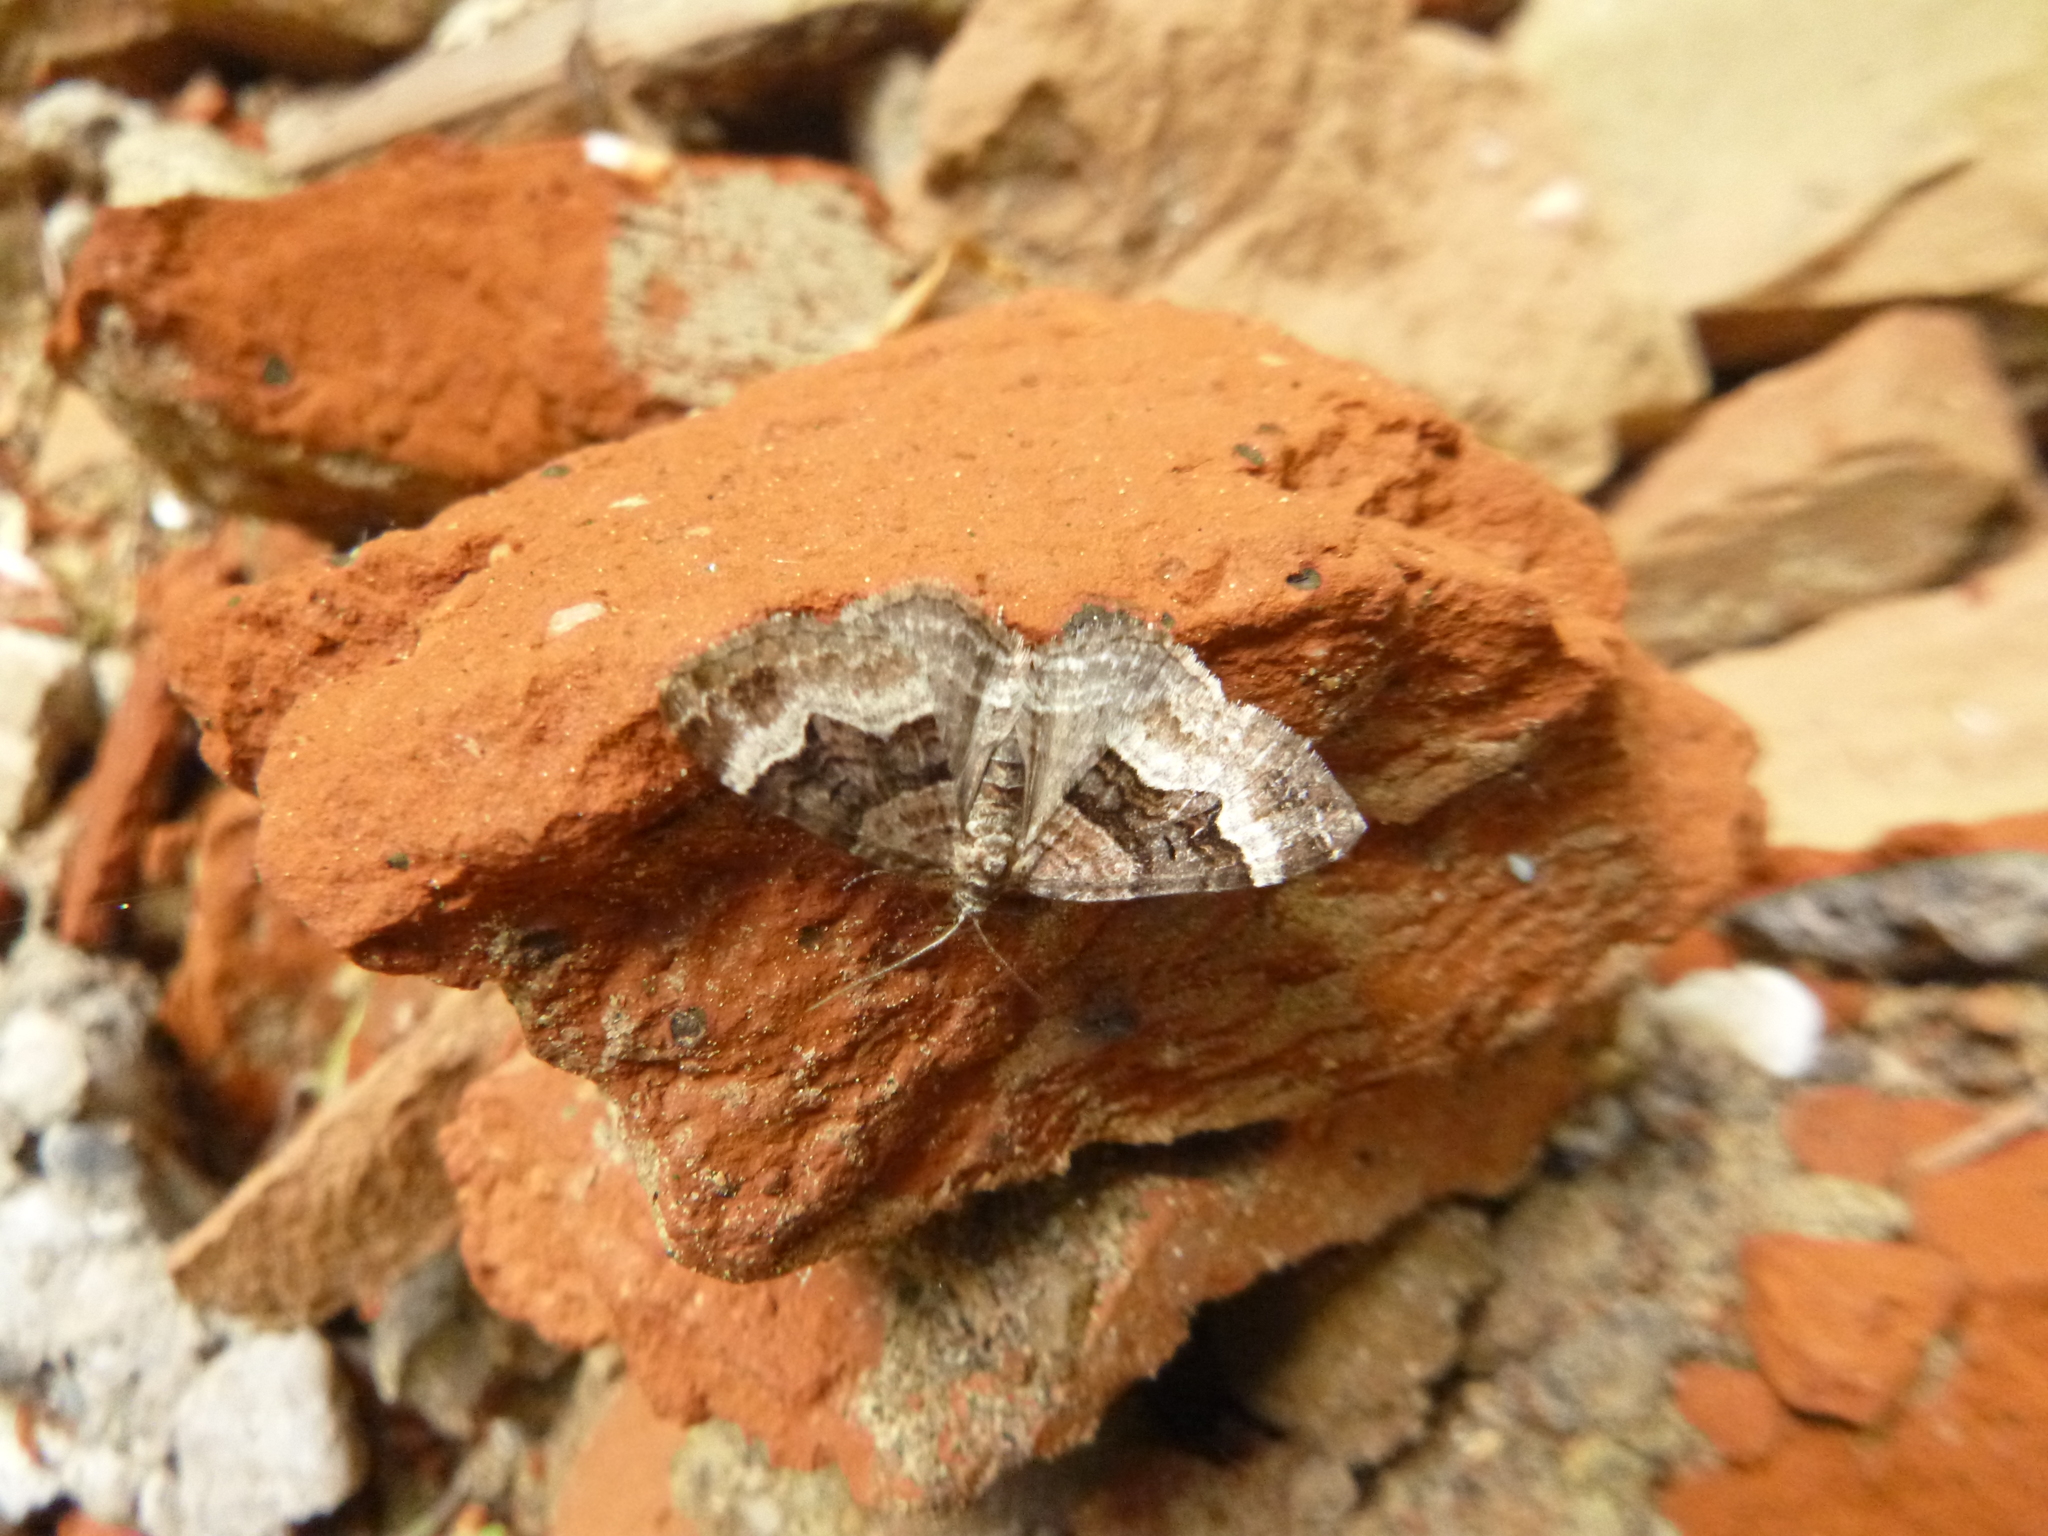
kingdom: Animalia
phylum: Arthropoda
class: Insecta
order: Lepidoptera
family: Geometridae
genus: Xanthorhoe
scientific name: Xanthorhoe biriviata
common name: Balsam carpet
